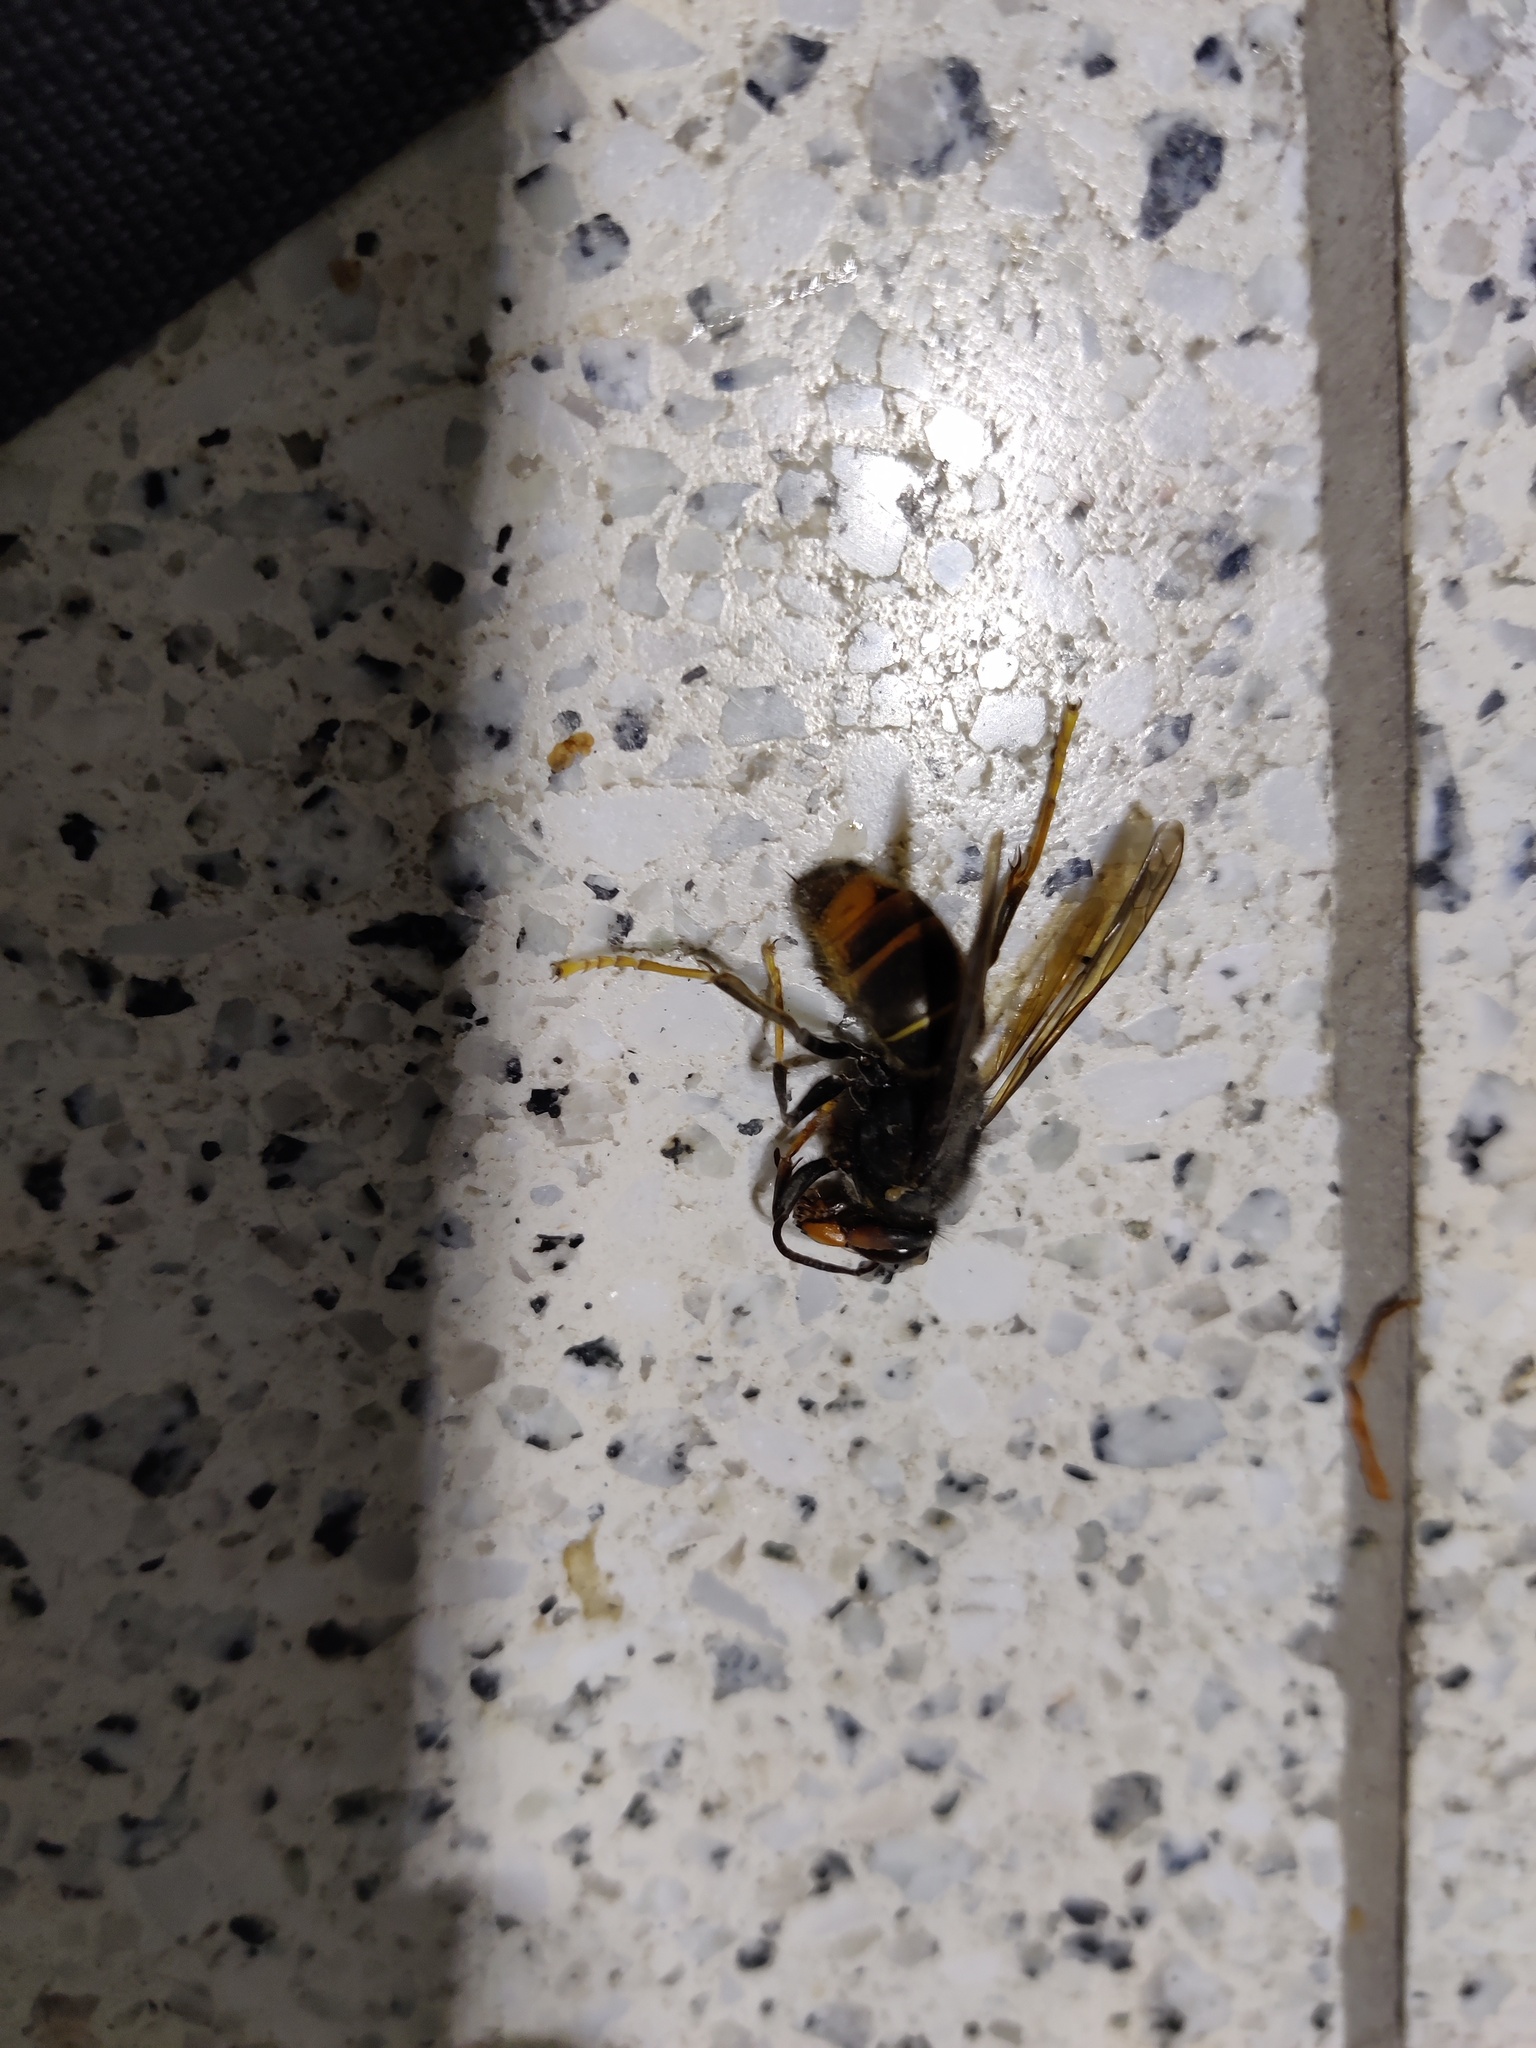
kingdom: Animalia
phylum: Arthropoda
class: Insecta
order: Hymenoptera
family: Vespidae
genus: Vespa
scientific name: Vespa velutina
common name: Asian hornet
